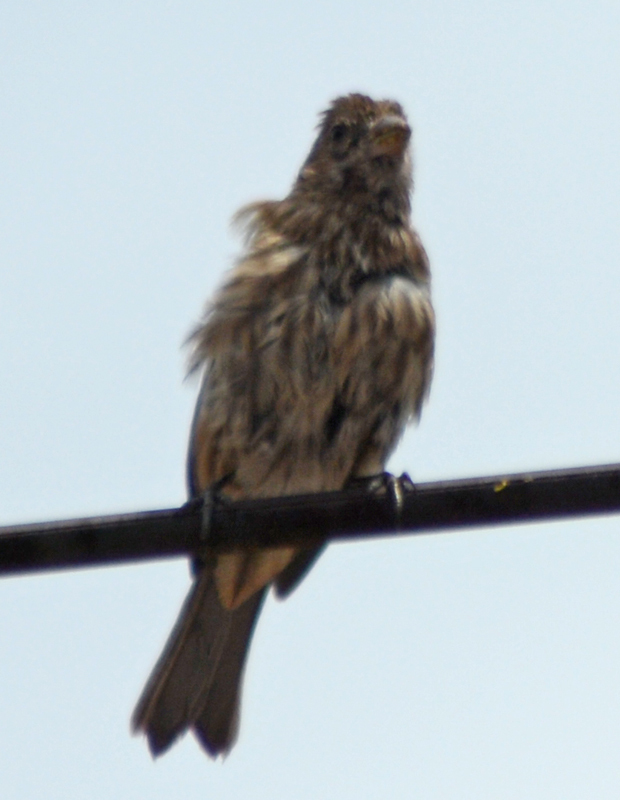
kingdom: Animalia
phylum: Chordata
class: Aves
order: Passeriformes
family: Fringillidae
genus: Haemorhous
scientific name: Haemorhous mexicanus
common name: House finch
